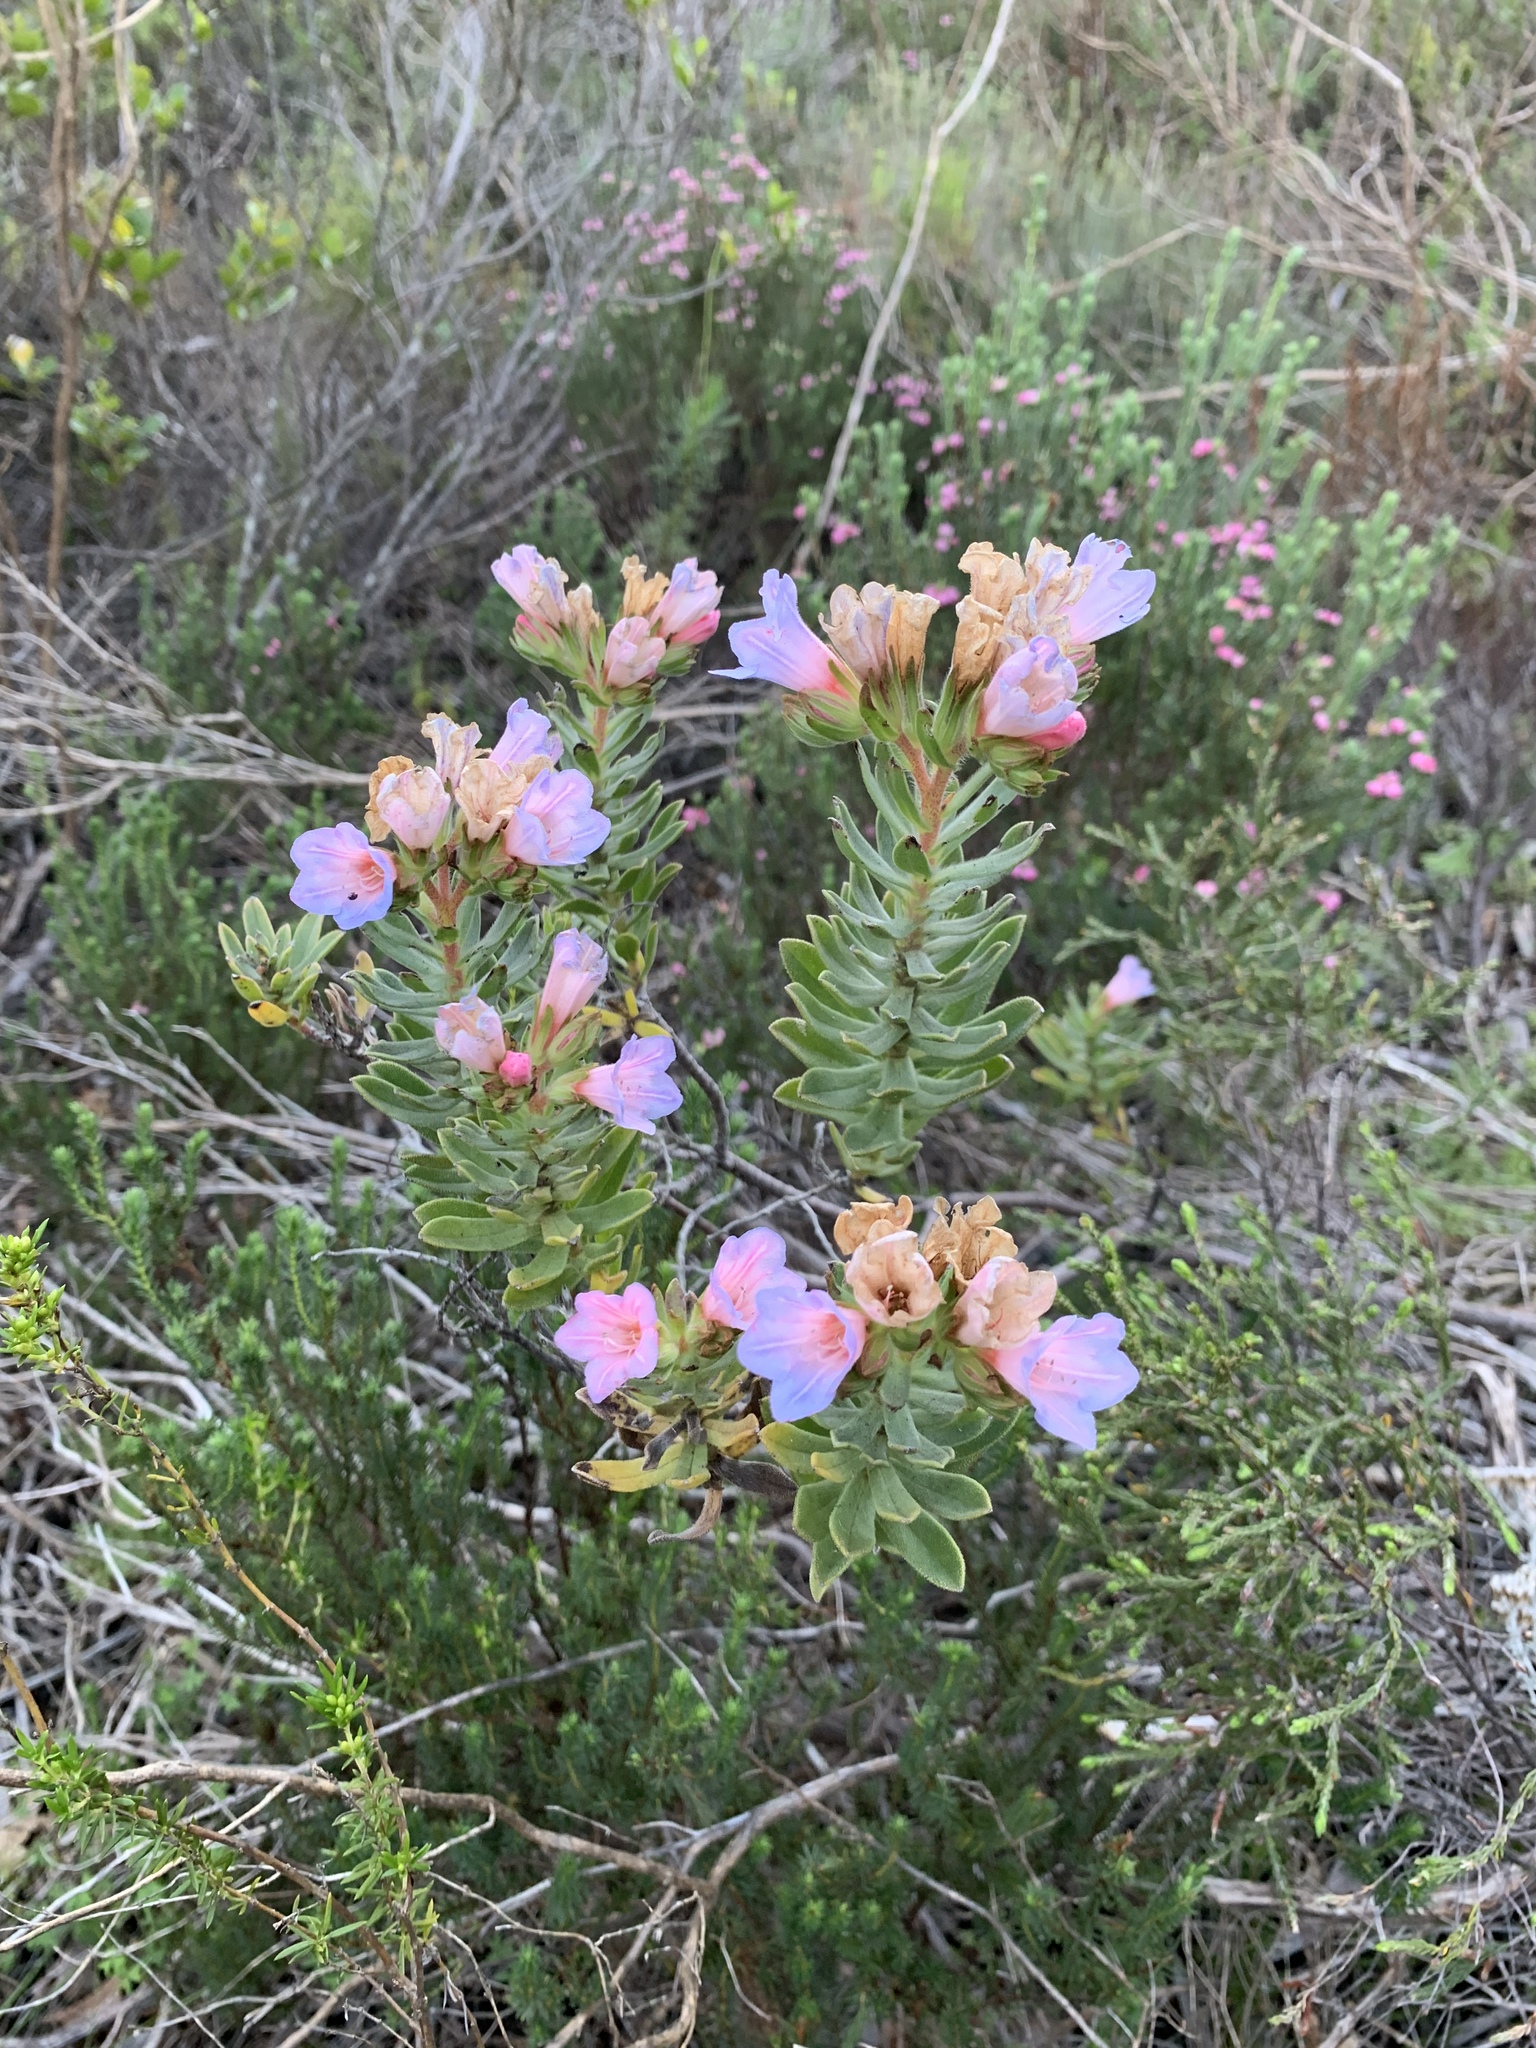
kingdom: Plantae
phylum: Tracheophyta
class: Magnoliopsida
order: Boraginales
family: Boraginaceae
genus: Lobostemon
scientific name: Lobostemon fruticosus
